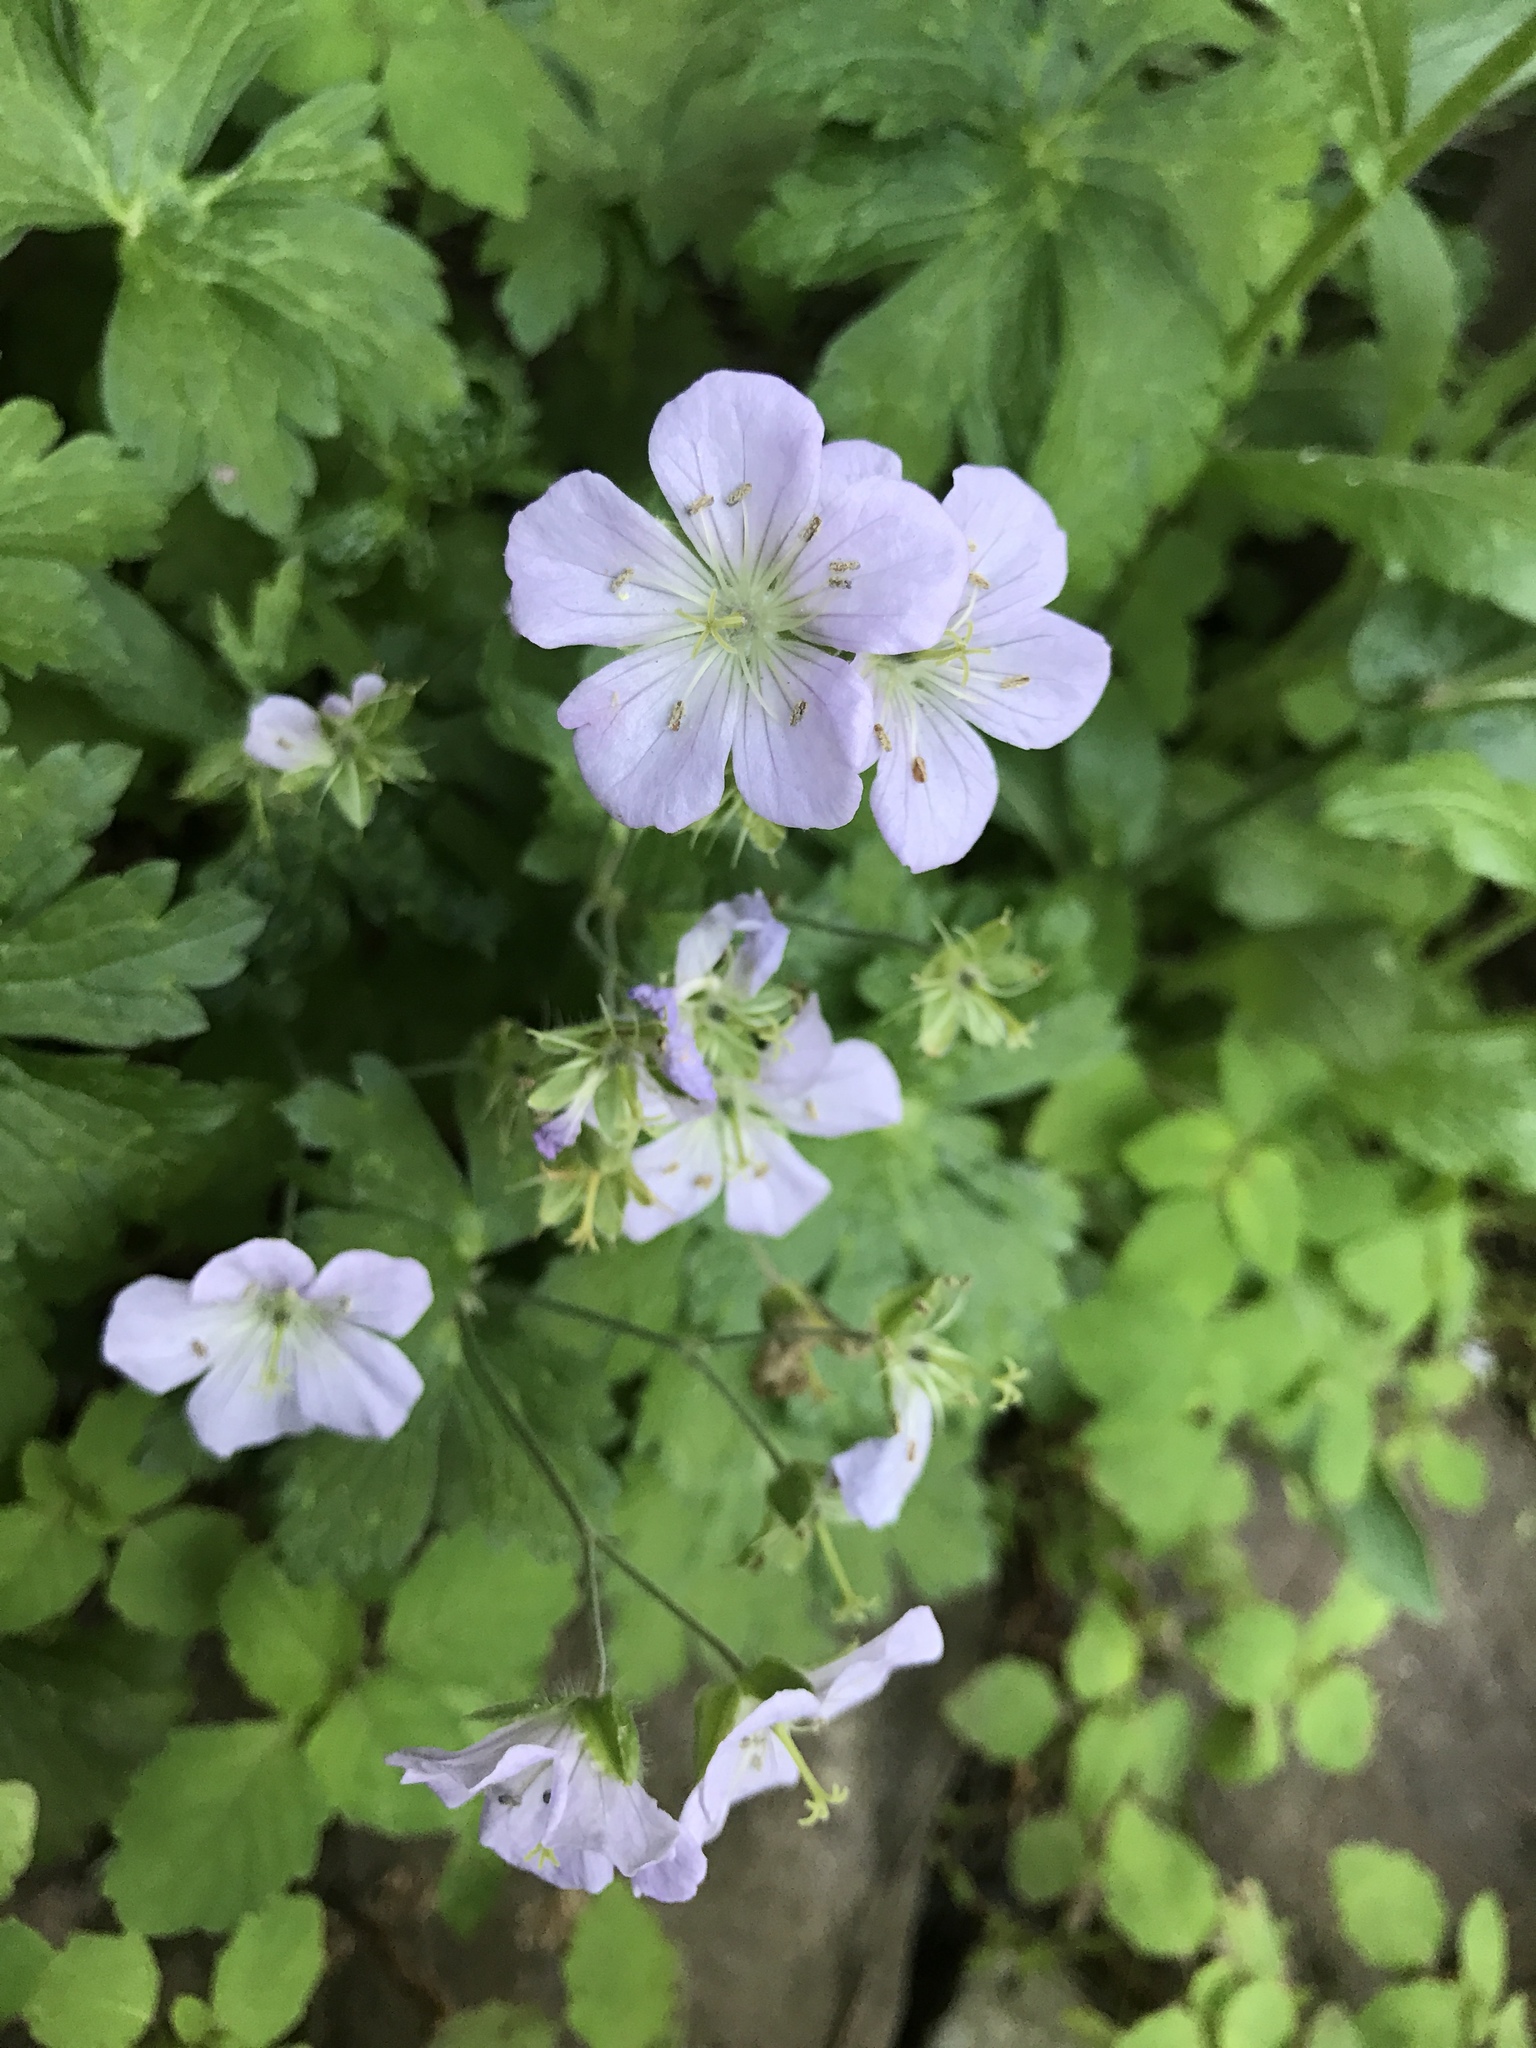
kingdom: Plantae
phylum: Tracheophyta
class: Magnoliopsida
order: Geraniales
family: Geraniaceae
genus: Geranium
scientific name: Geranium maculatum
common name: Spotted geranium
